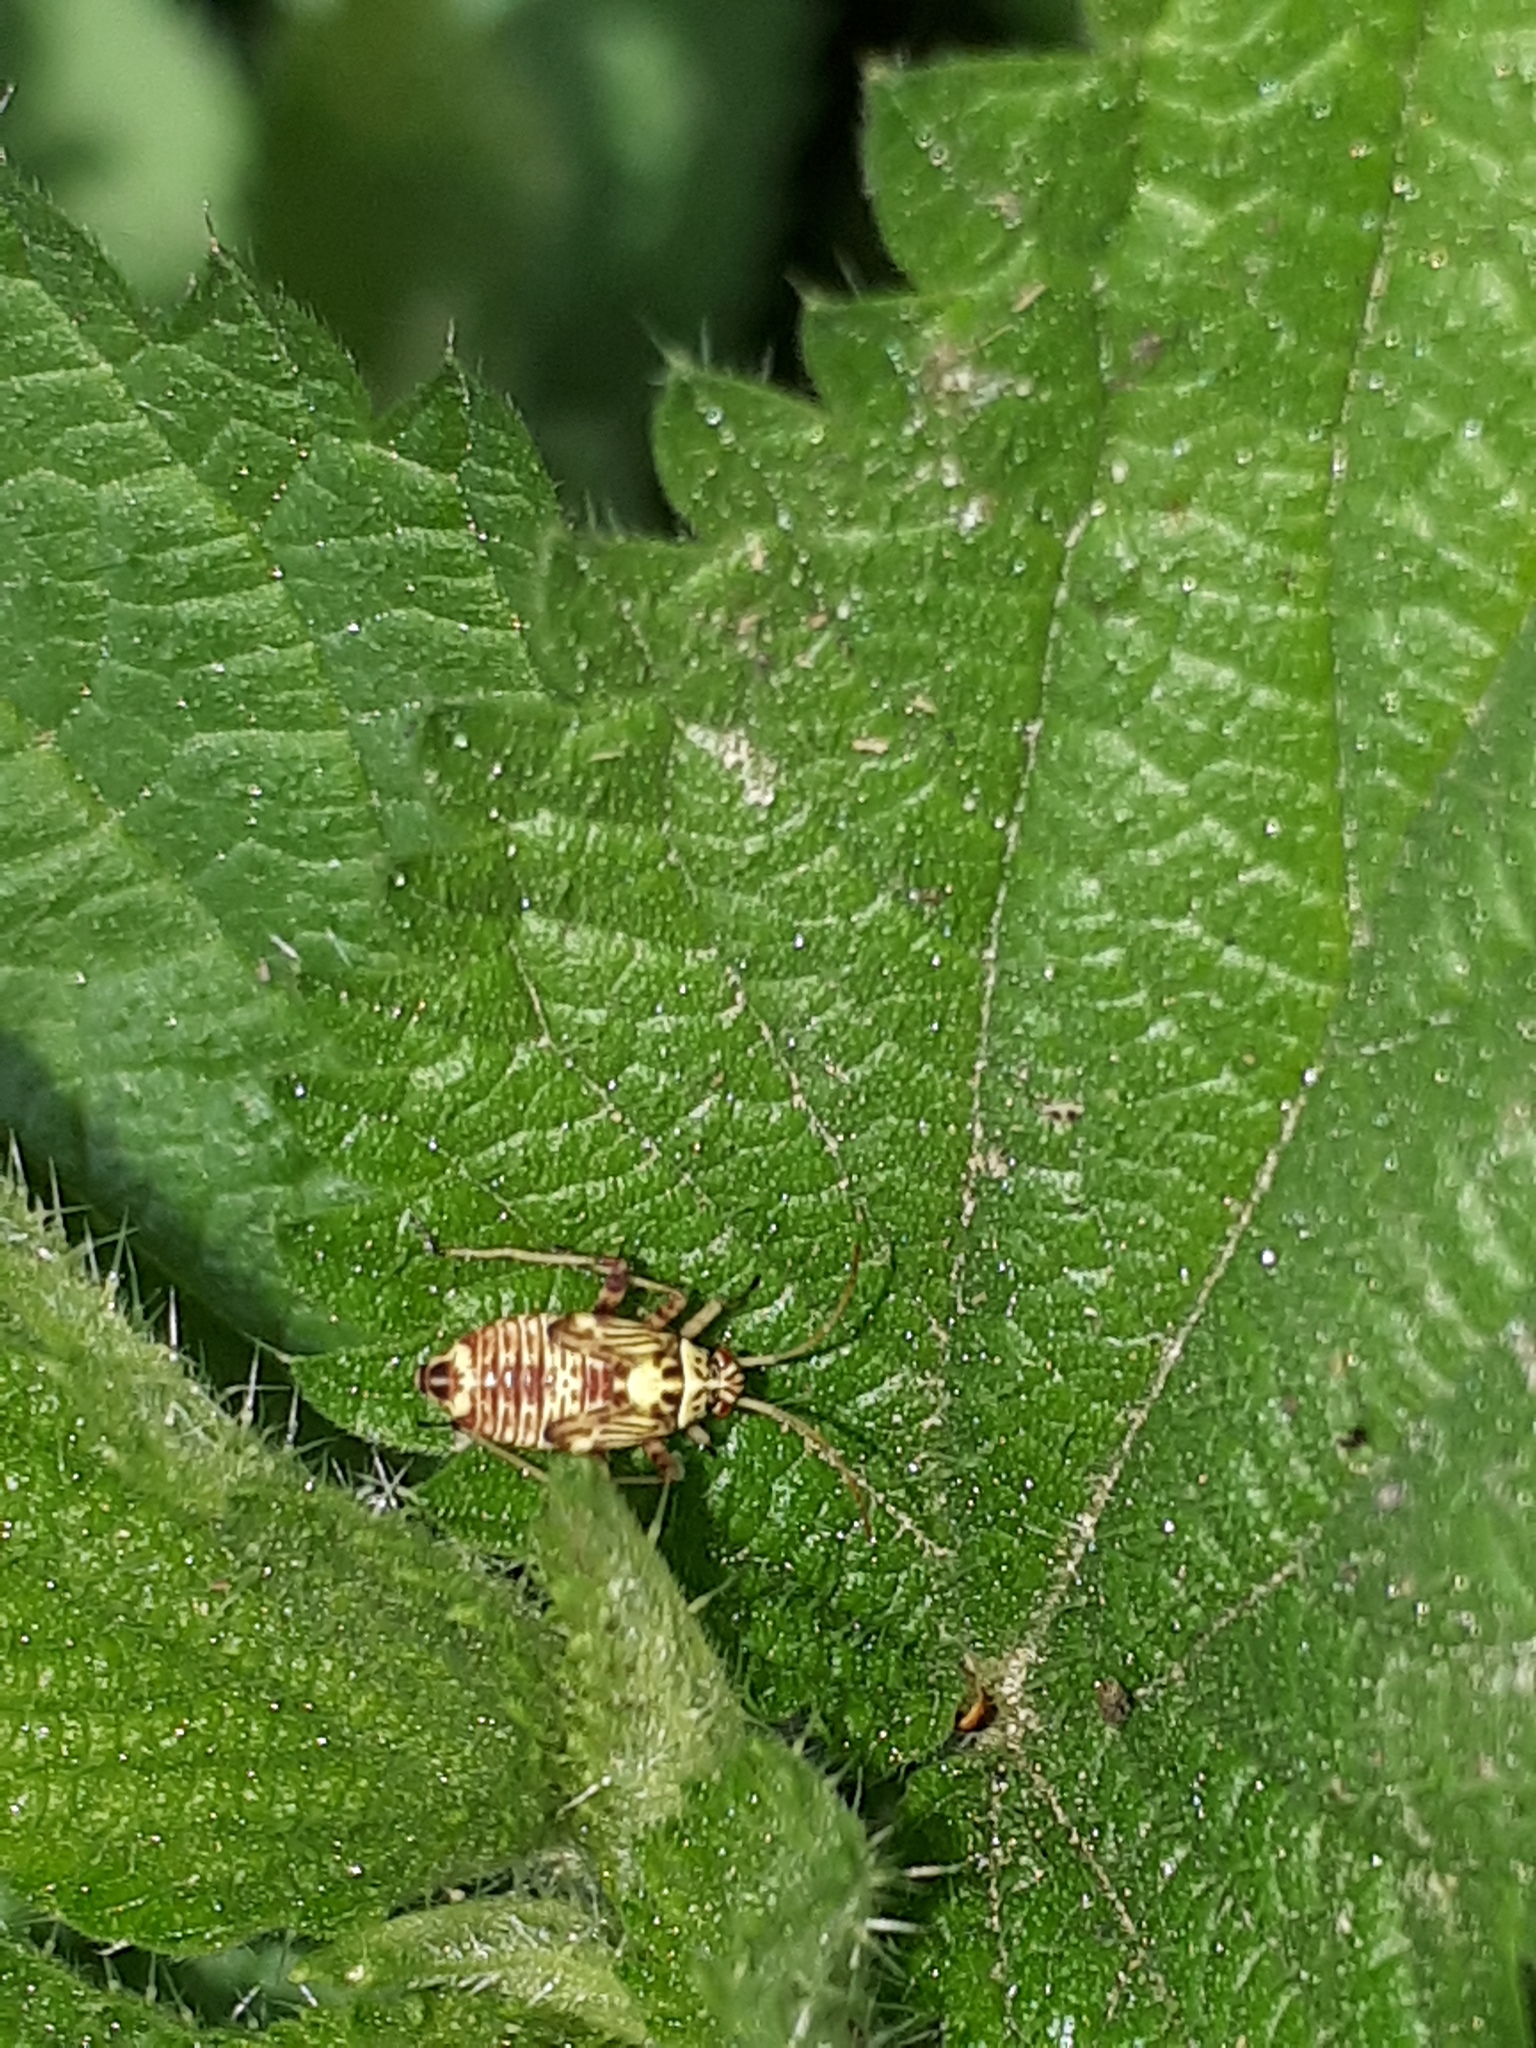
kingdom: Animalia
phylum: Arthropoda
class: Insecta
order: Hemiptera
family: Miridae
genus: Rhabdomiris
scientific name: Rhabdomiris striatellus
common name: Plant bug
